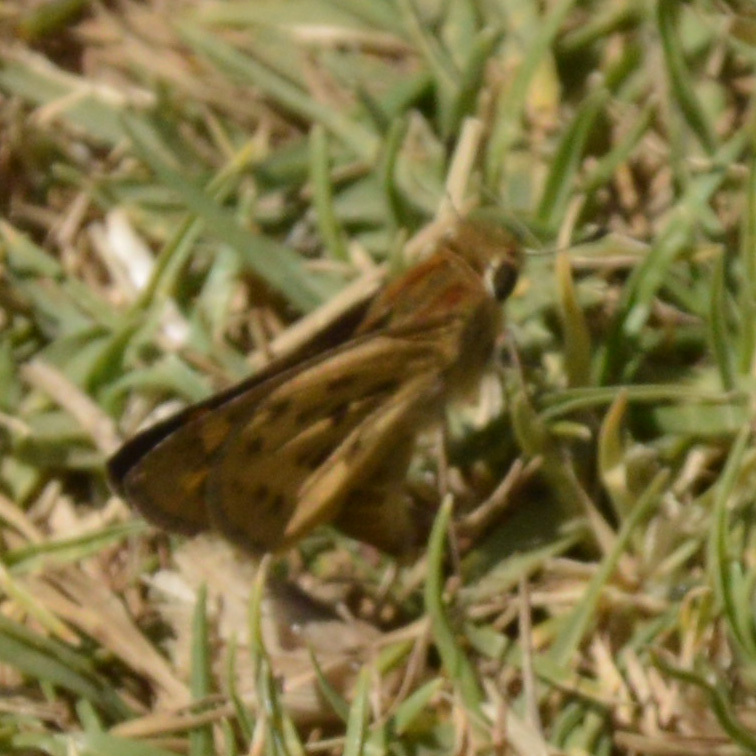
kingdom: Animalia
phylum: Arthropoda
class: Insecta
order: Lepidoptera
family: Hesperiidae
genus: Hylephila
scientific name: Hylephila phyleus
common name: Fiery skipper
